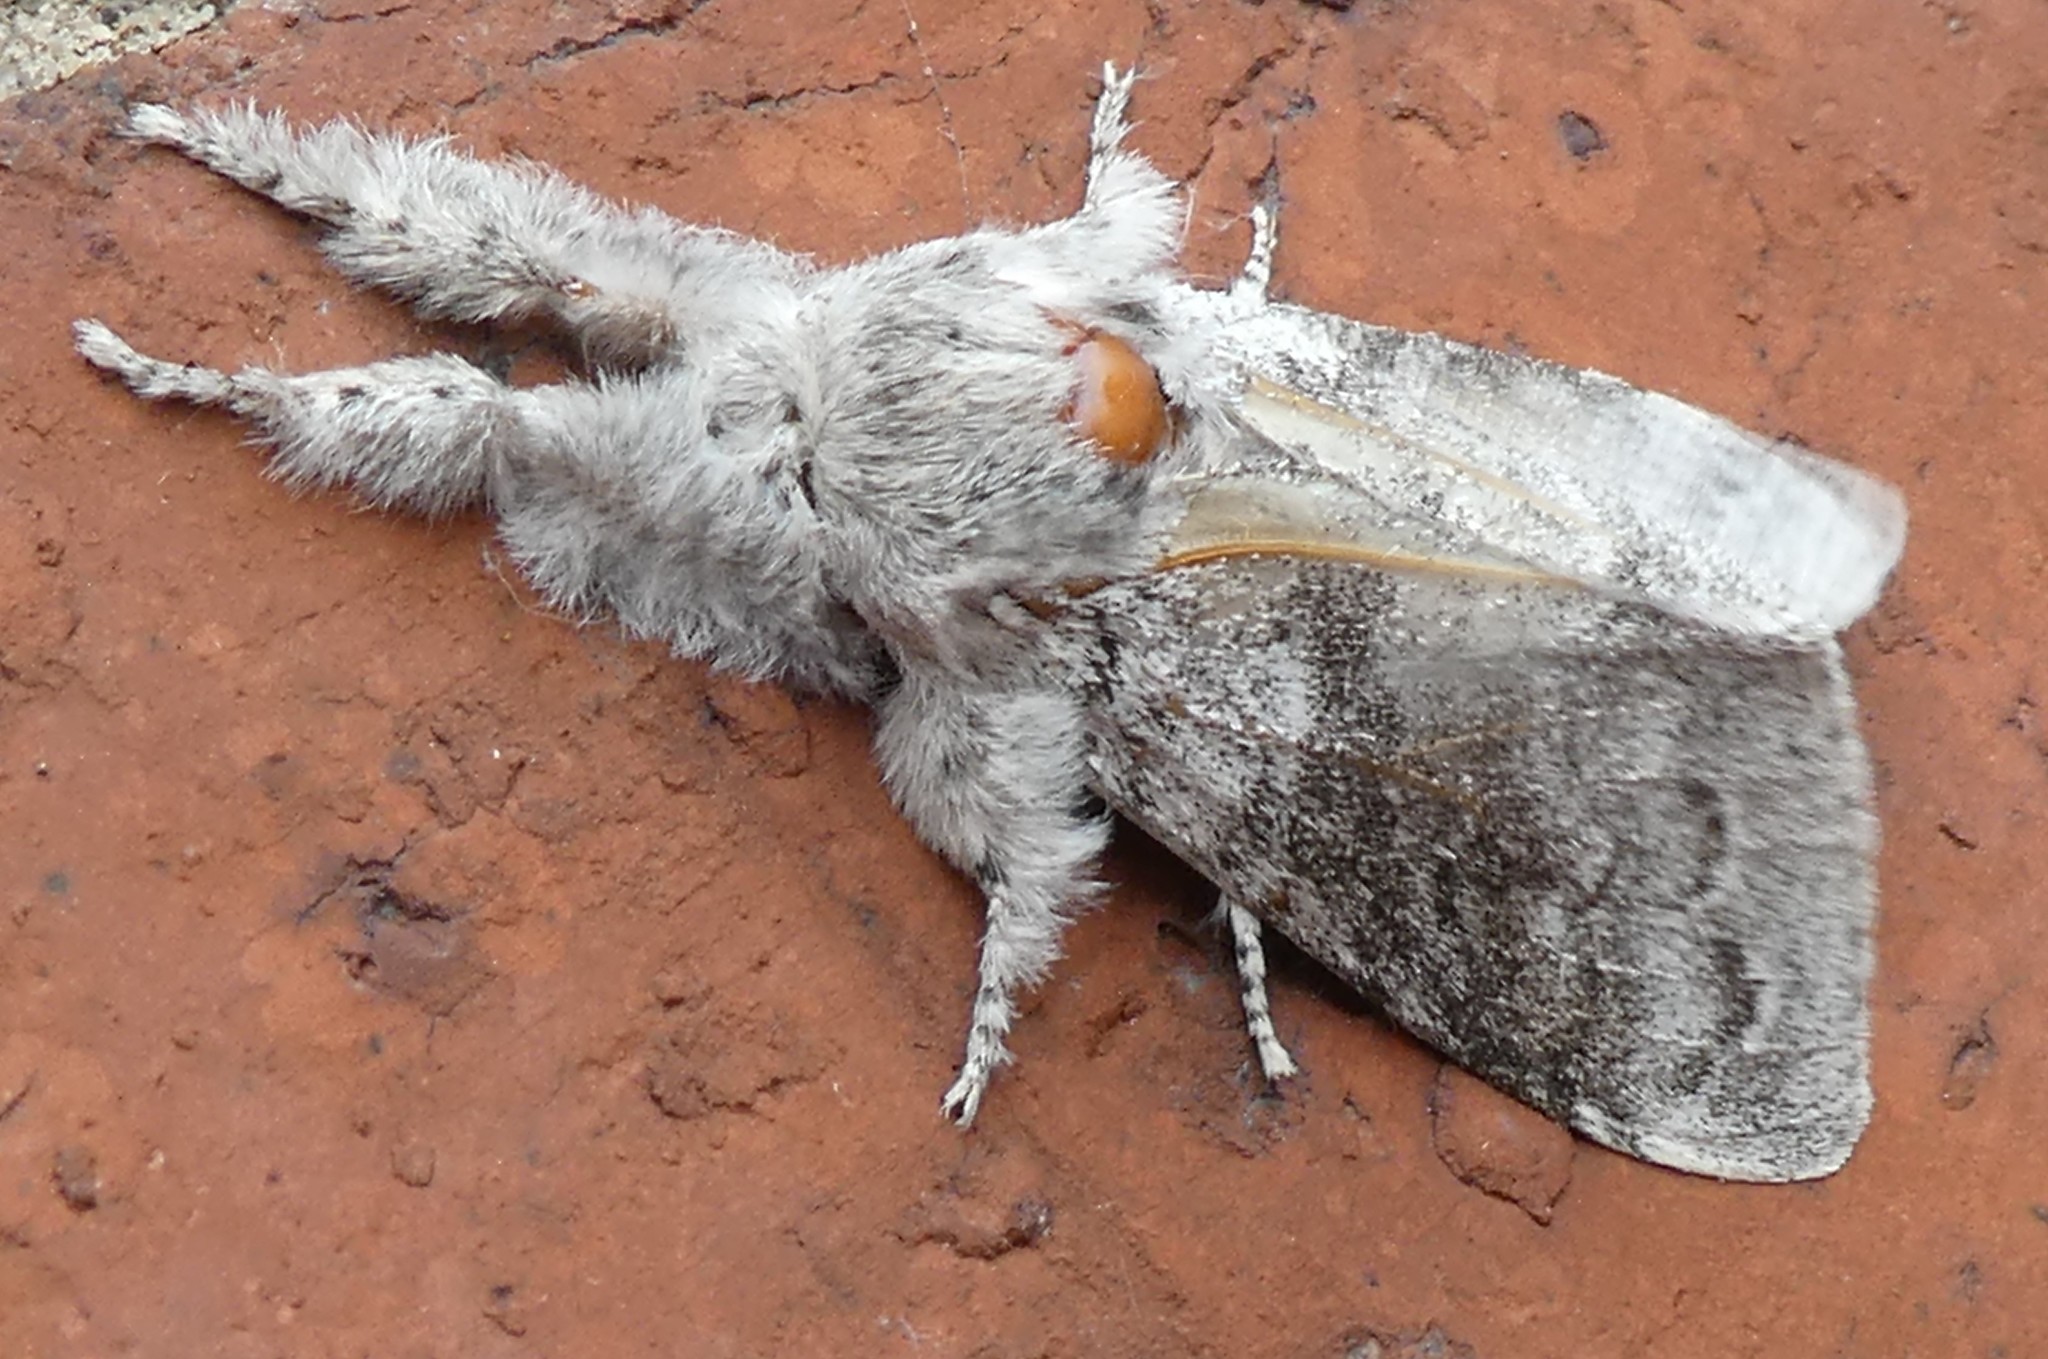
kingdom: Animalia
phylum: Arthropoda
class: Insecta
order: Lepidoptera
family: Erebidae
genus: Calliteara
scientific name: Calliteara pudibunda
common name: Pale tussock
